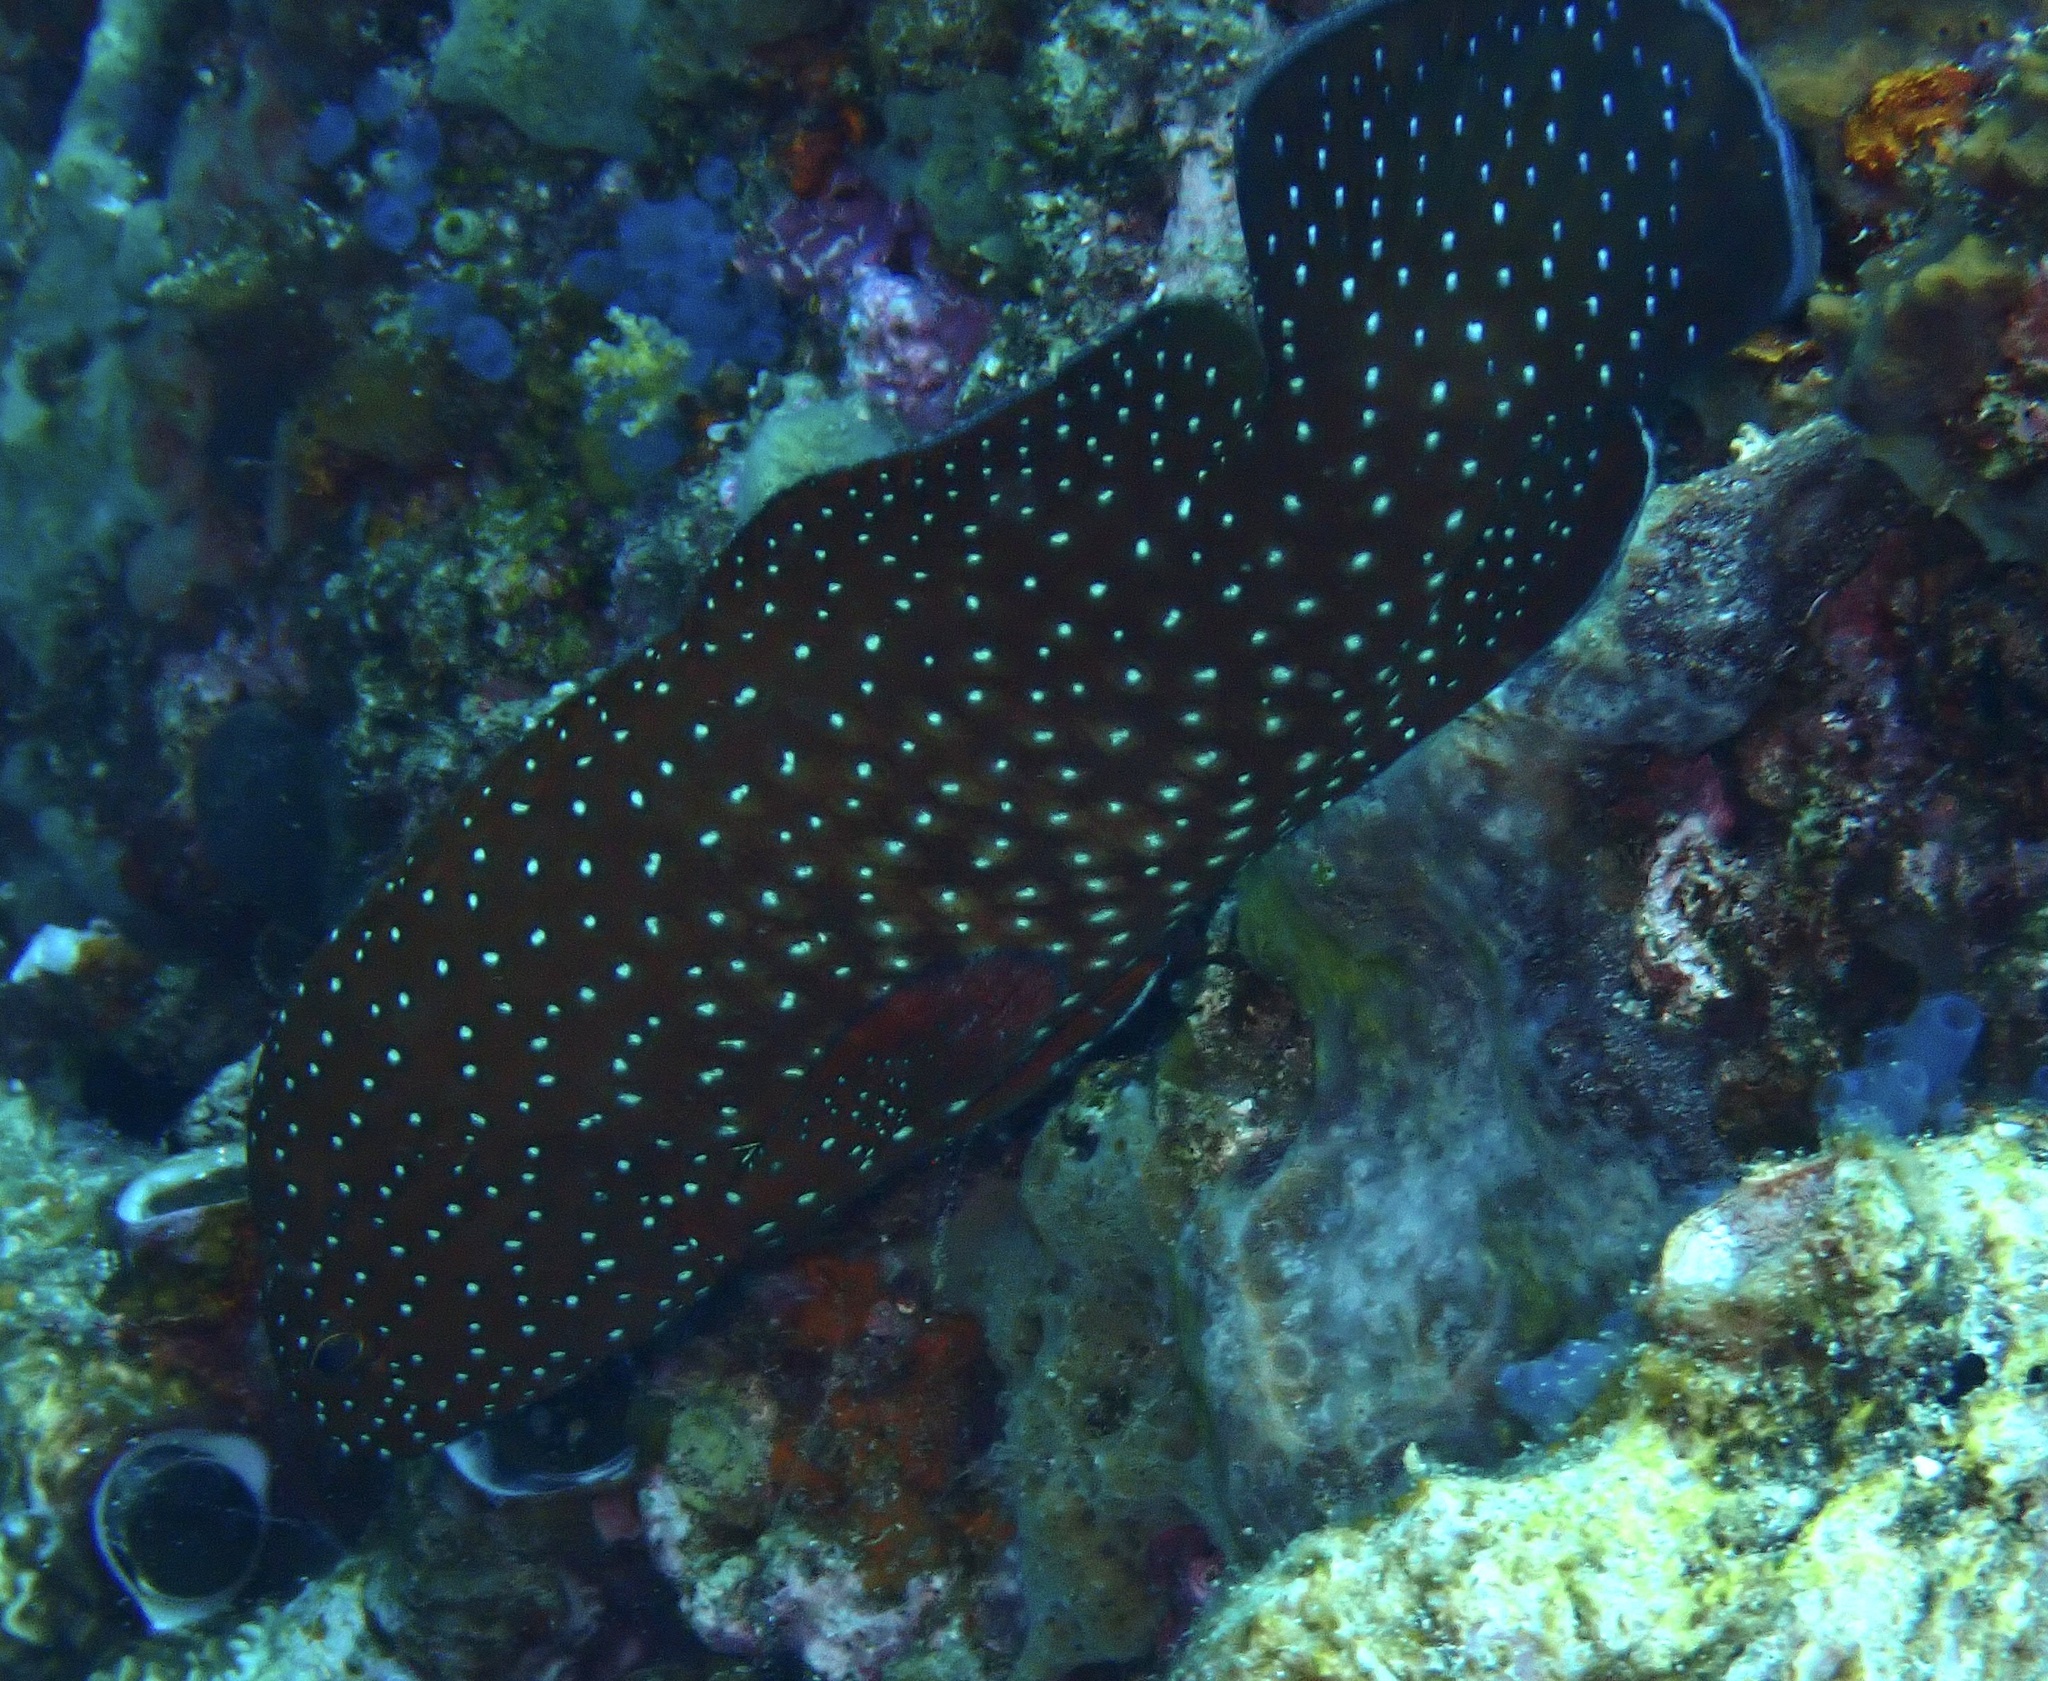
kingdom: Animalia
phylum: Chordata
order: Perciformes
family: Serranidae
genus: Cephalopholis
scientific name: Cephalopholis cyanostigma
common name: Bluespotted hind
